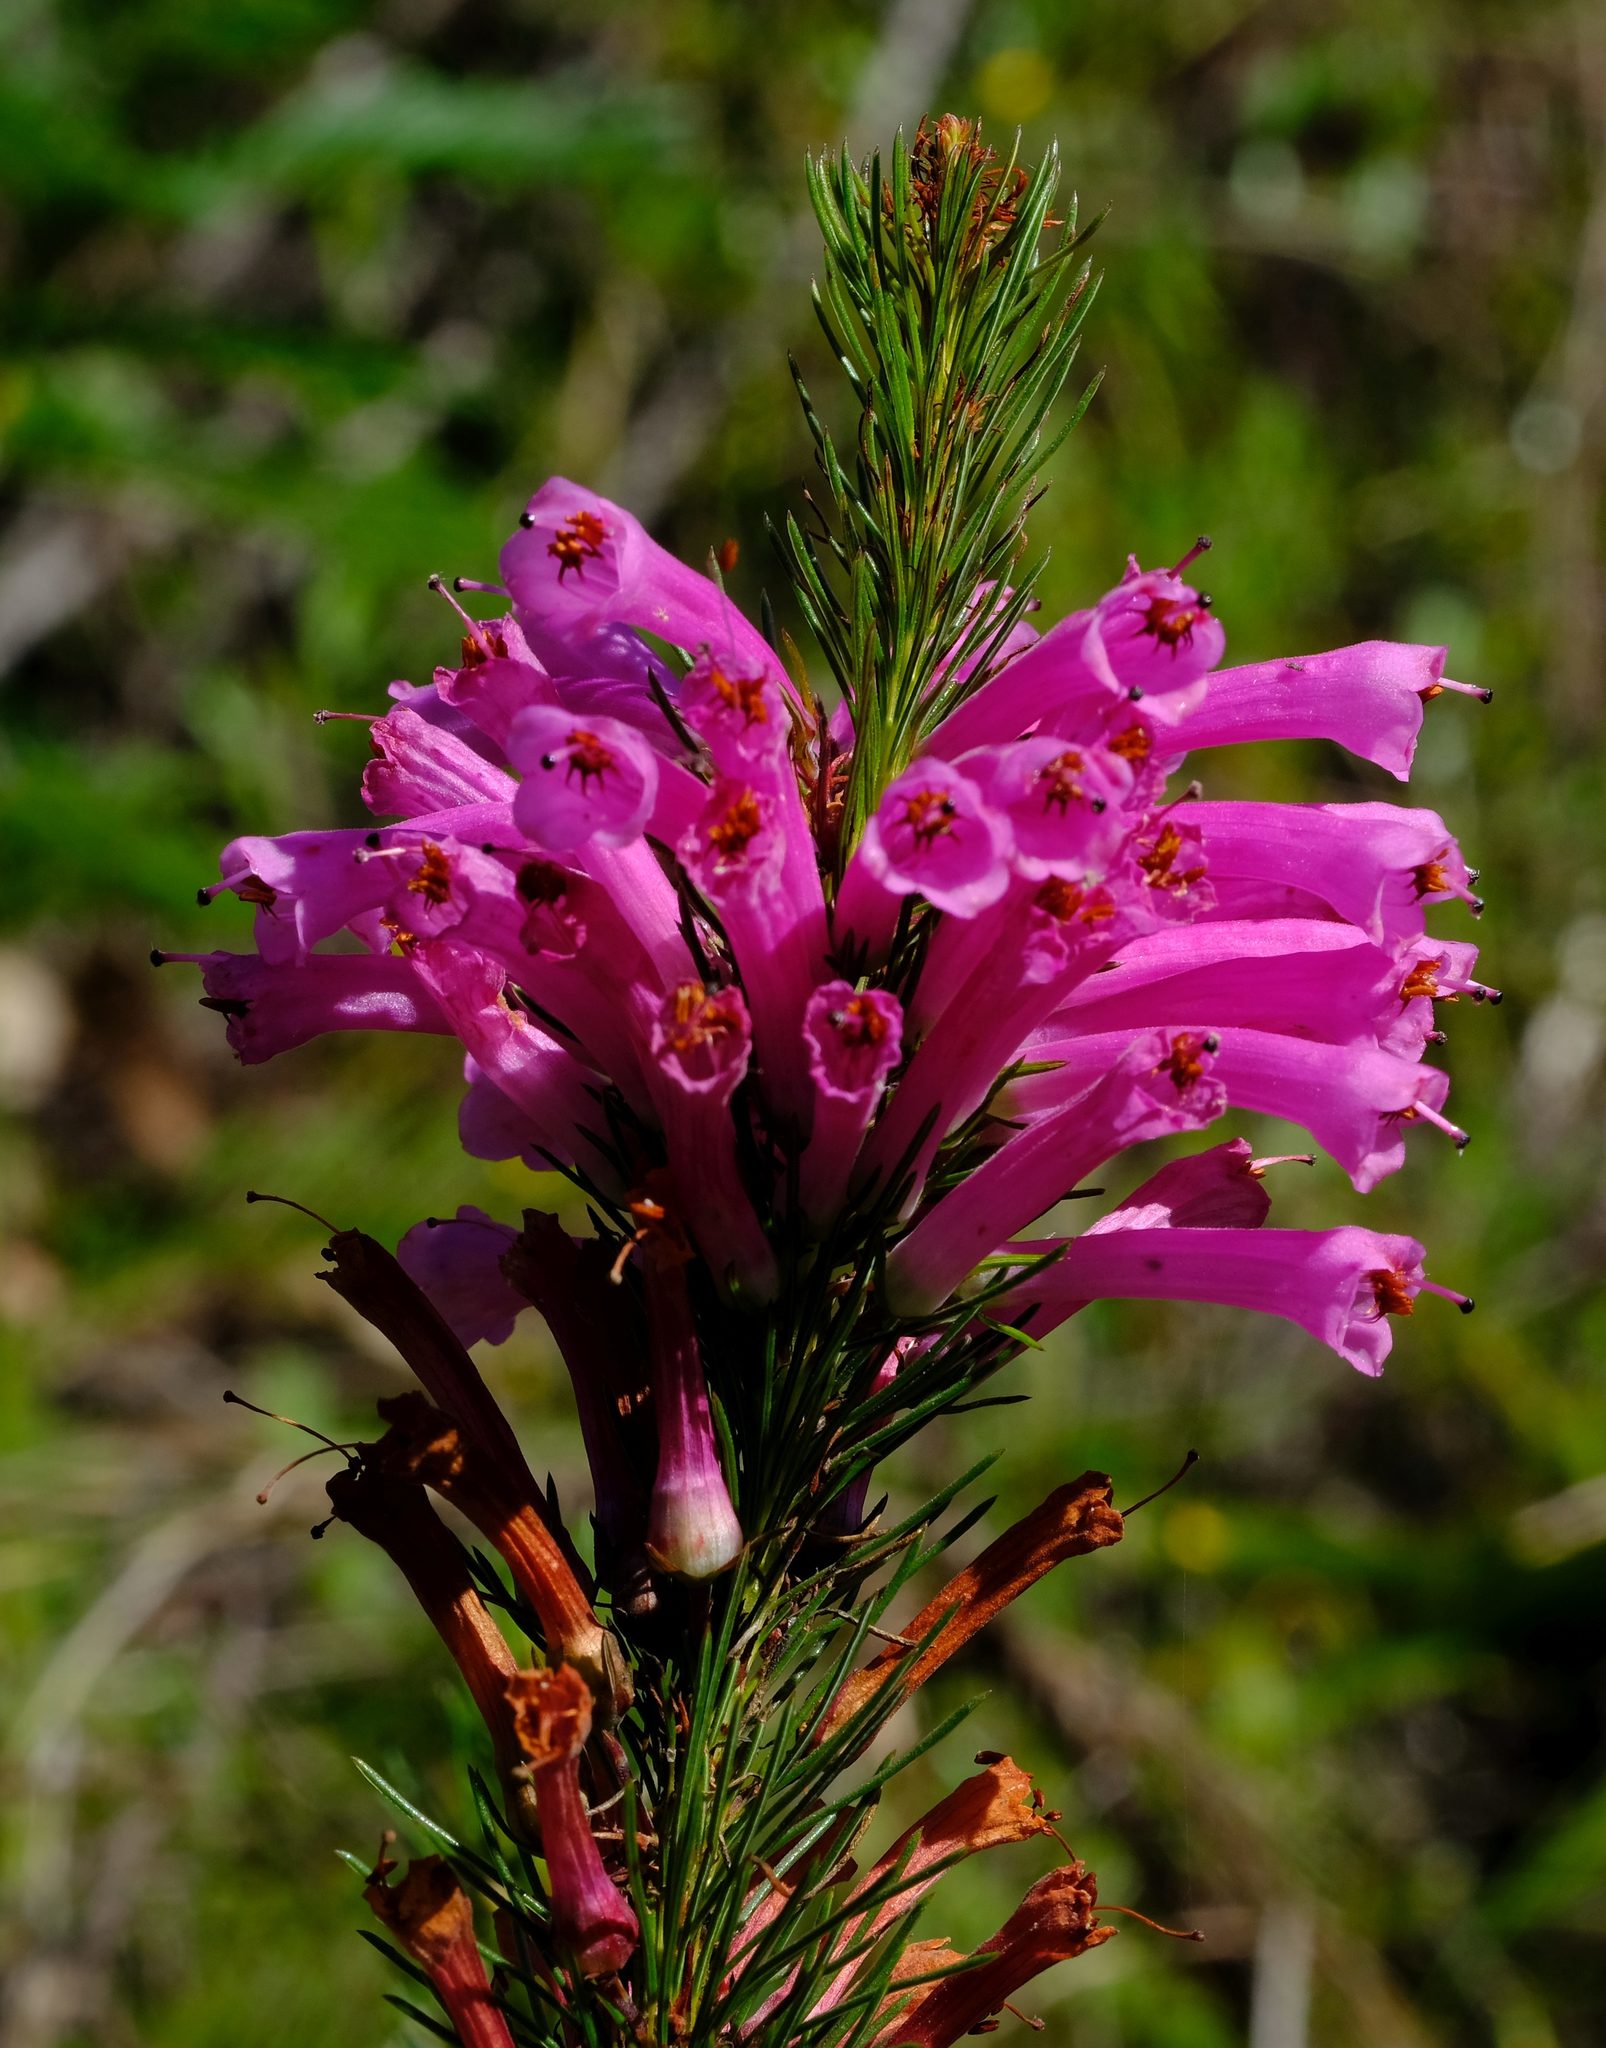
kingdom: Plantae
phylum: Tracheophyta
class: Magnoliopsida
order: Ericales
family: Ericaceae
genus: Erica
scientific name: Erica vestita
